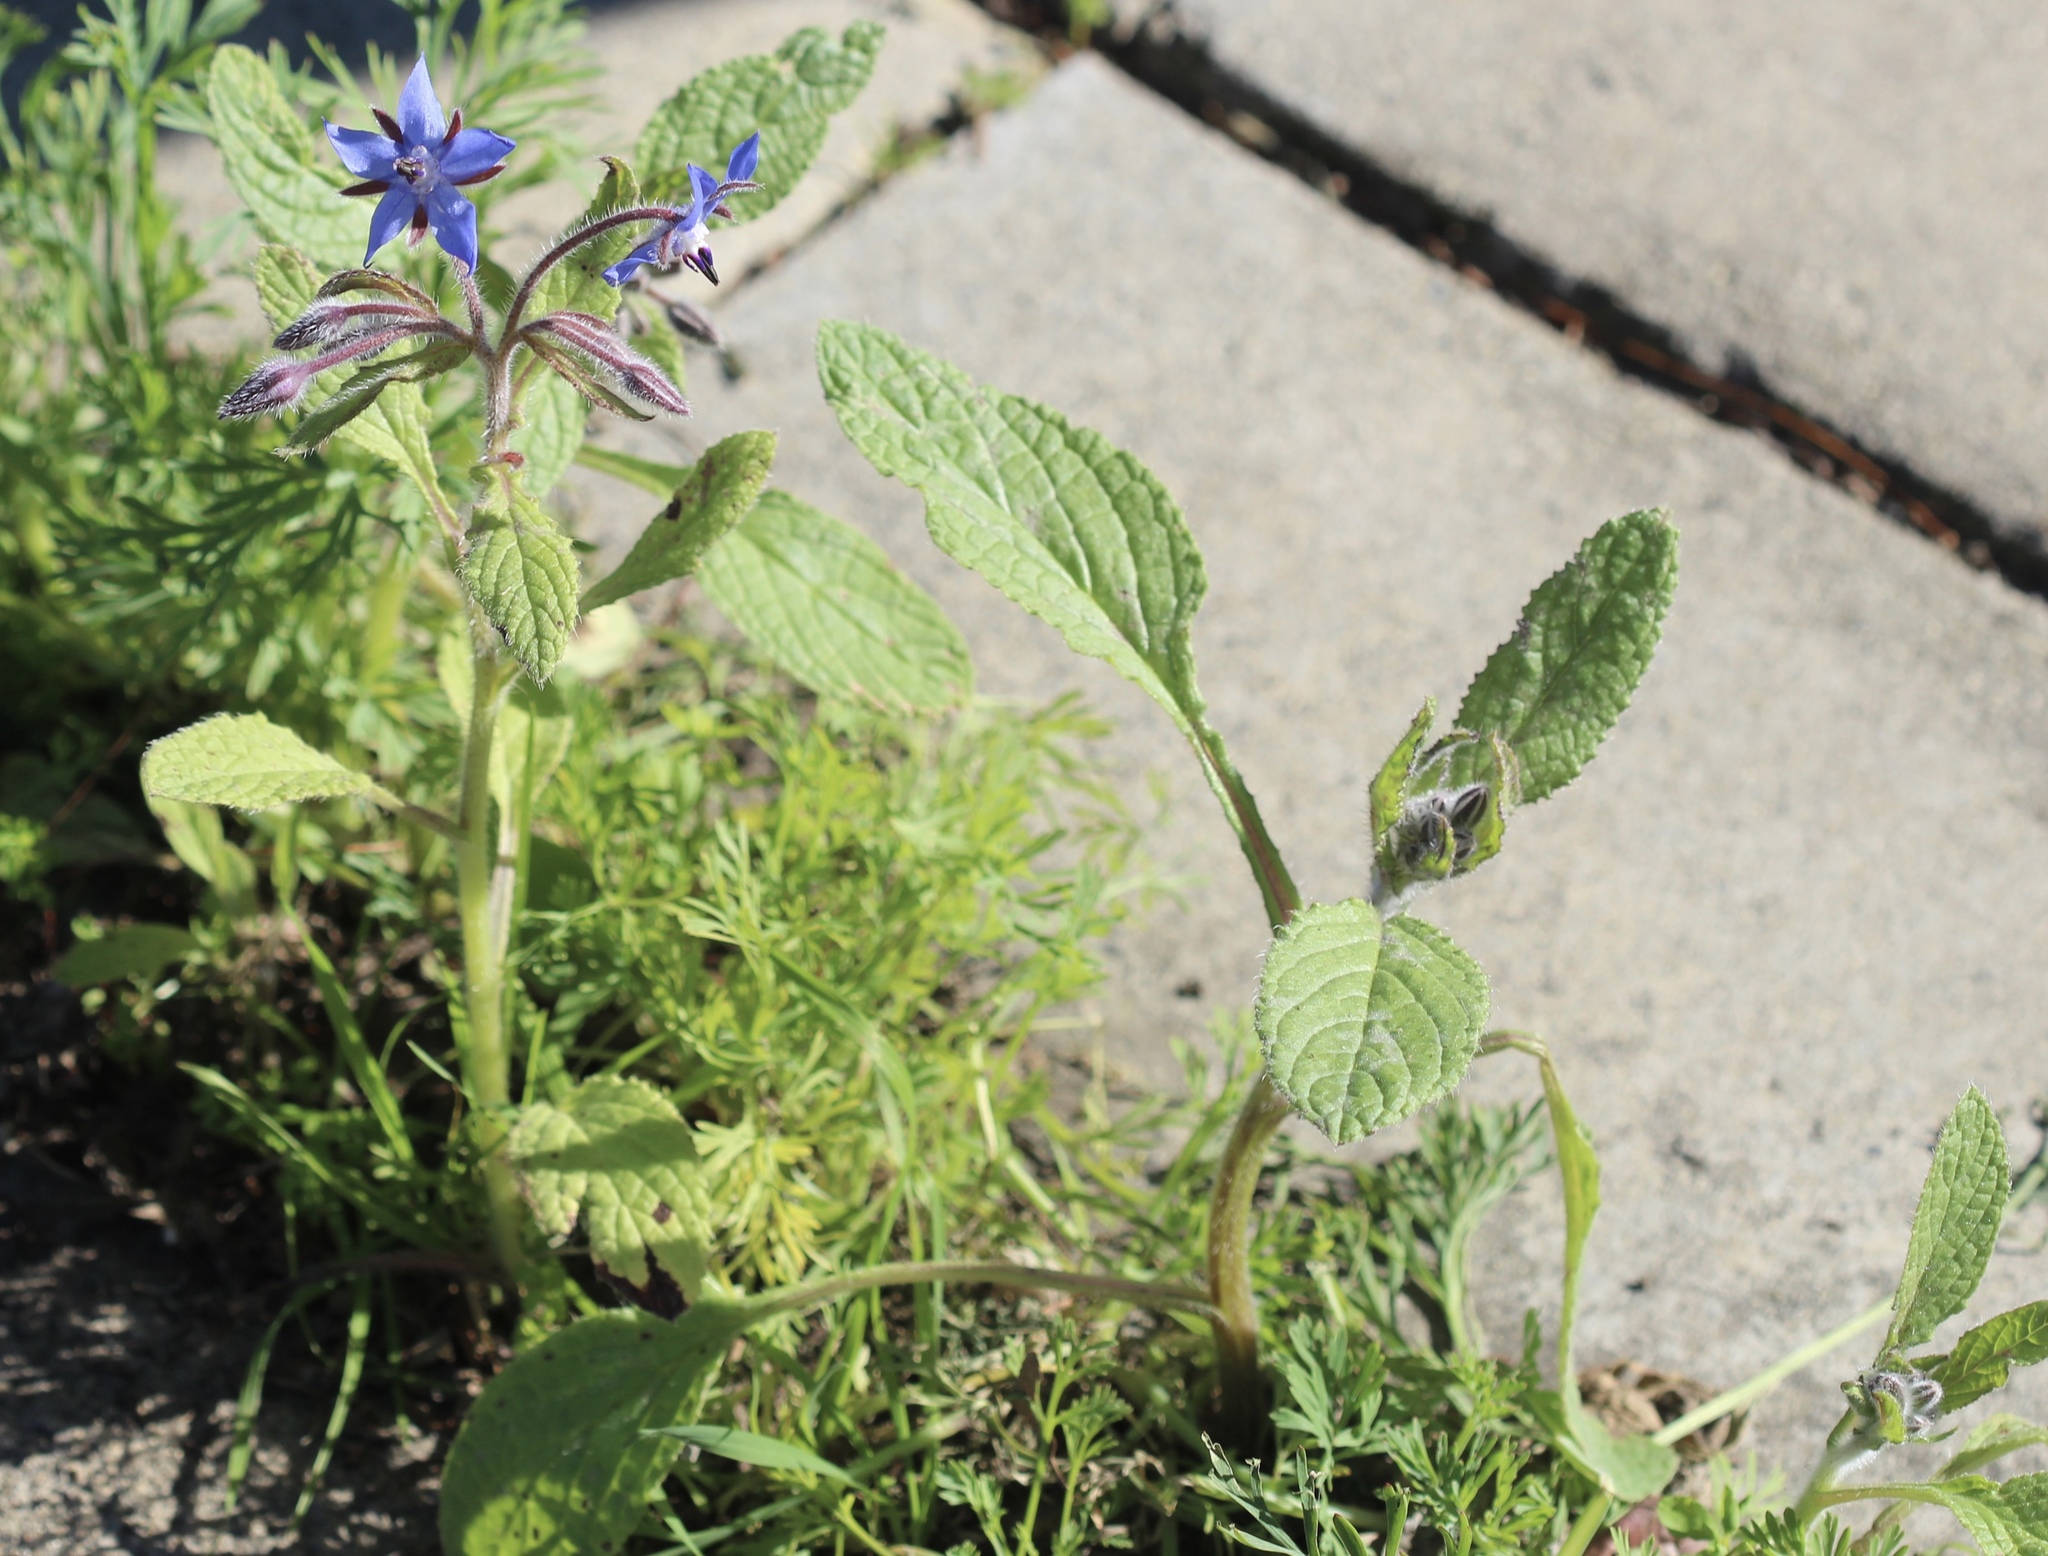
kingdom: Plantae
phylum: Tracheophyta
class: Magnoliopsida
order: Boraginales
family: Boraginaceae
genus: Borago
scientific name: Borago officinalis
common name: Borage
